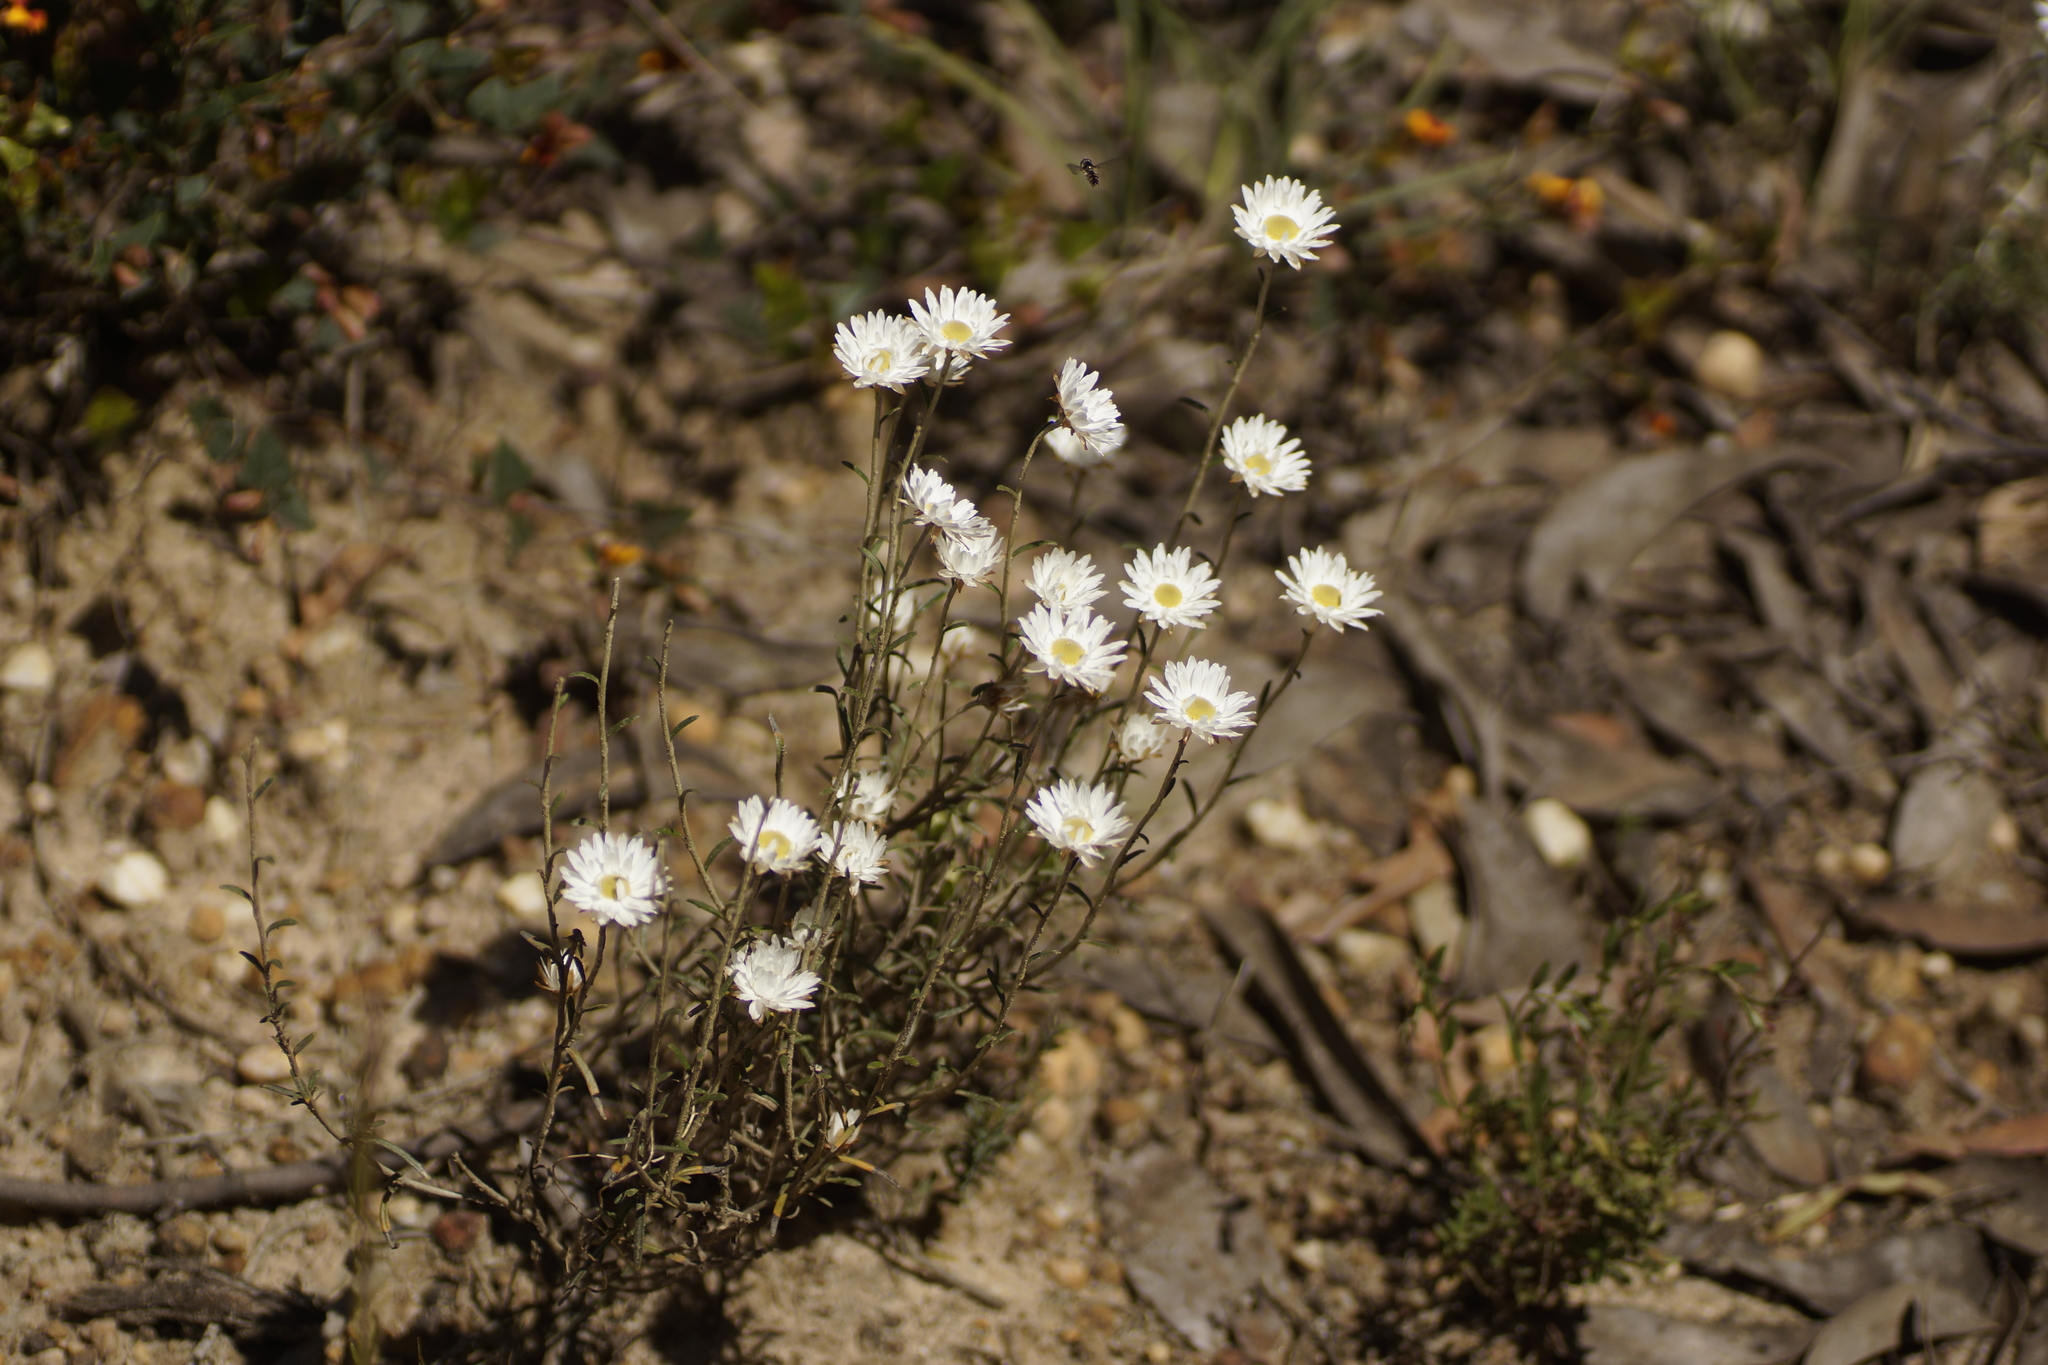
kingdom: Plantae
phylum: Tracheophyta
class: Magnoliopsida
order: Asterales
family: Asteraceae
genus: Argentipallium
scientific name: Argentipallium obtusifolium
